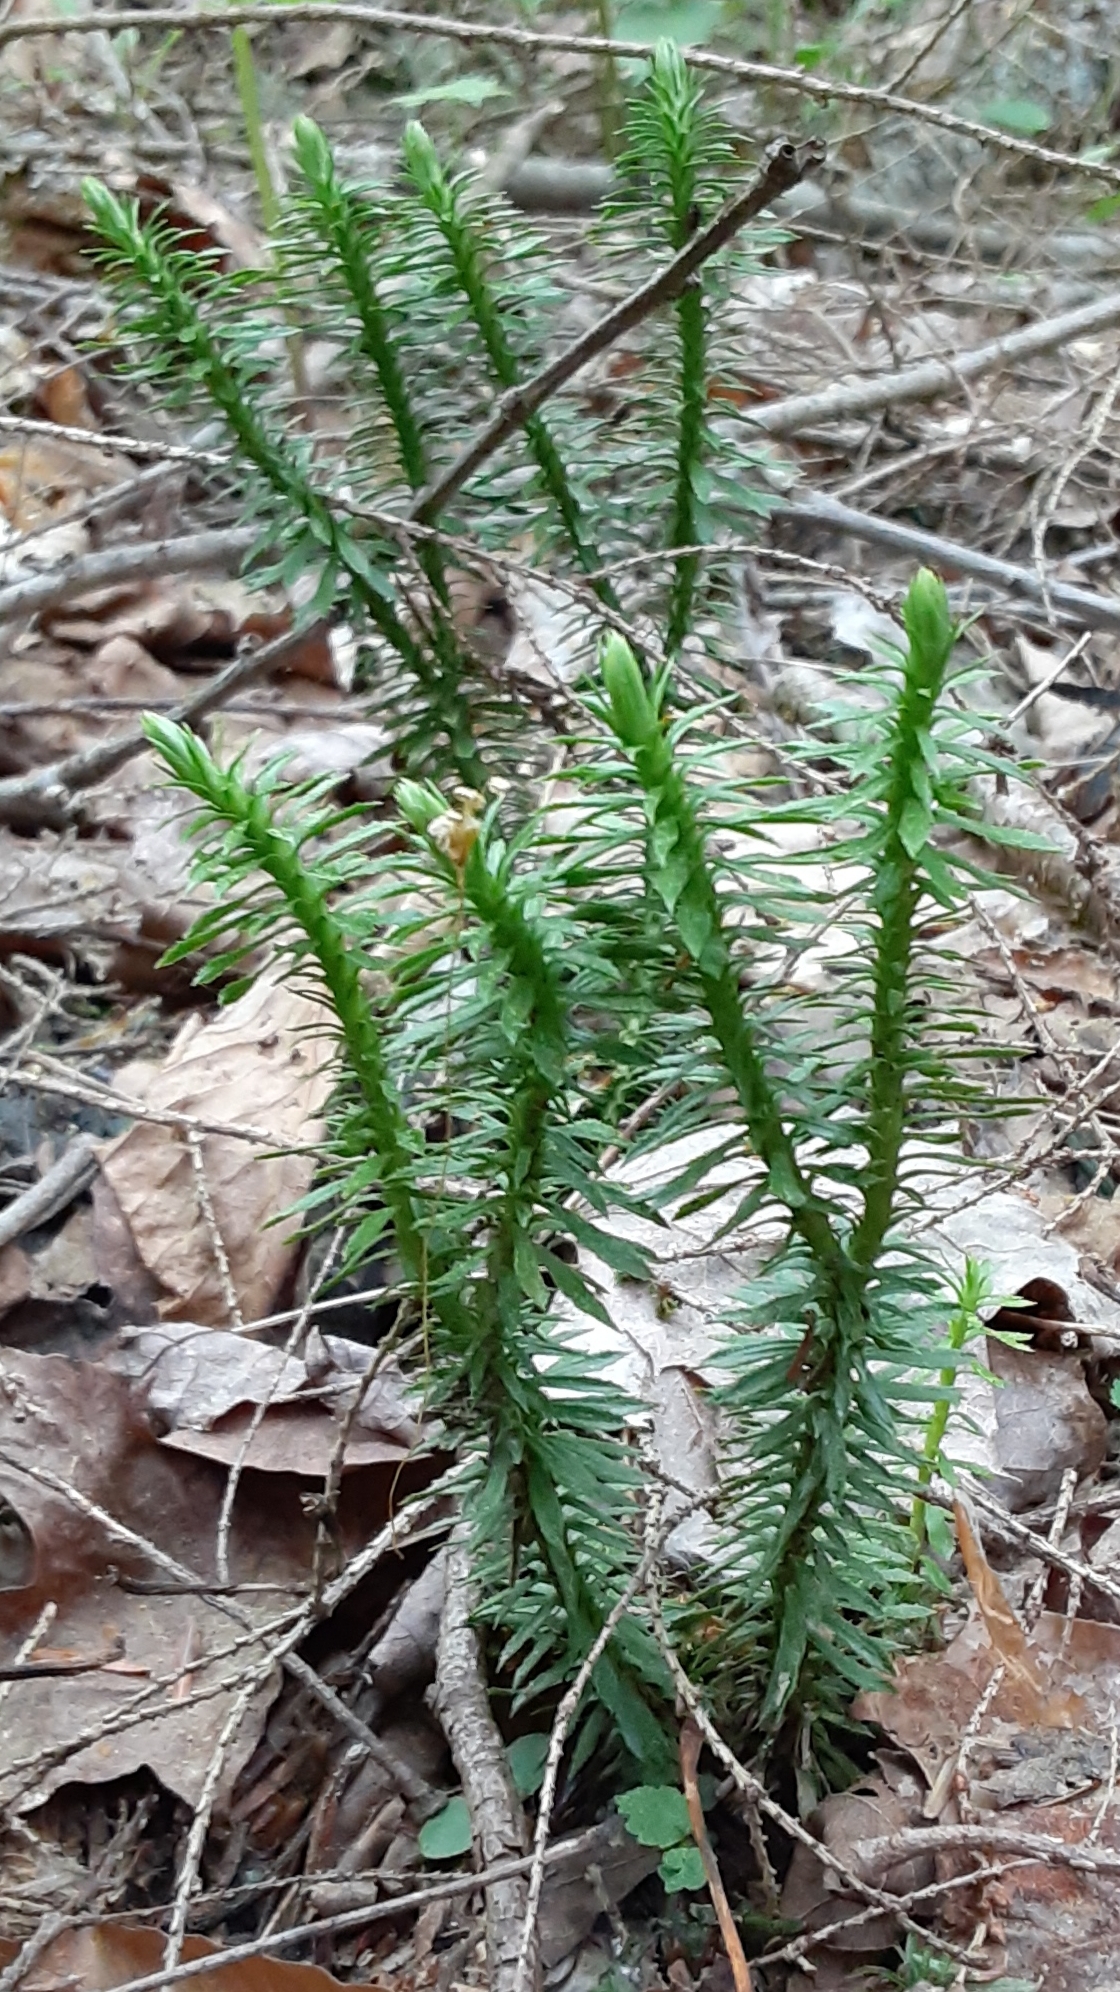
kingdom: Plantae
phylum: Tracheophyta
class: Lycopodiopsida
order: Lycopodiales
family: Lycopodiaceae
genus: Huperzia
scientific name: Huperzia lucidula
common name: Shining clubmoss
